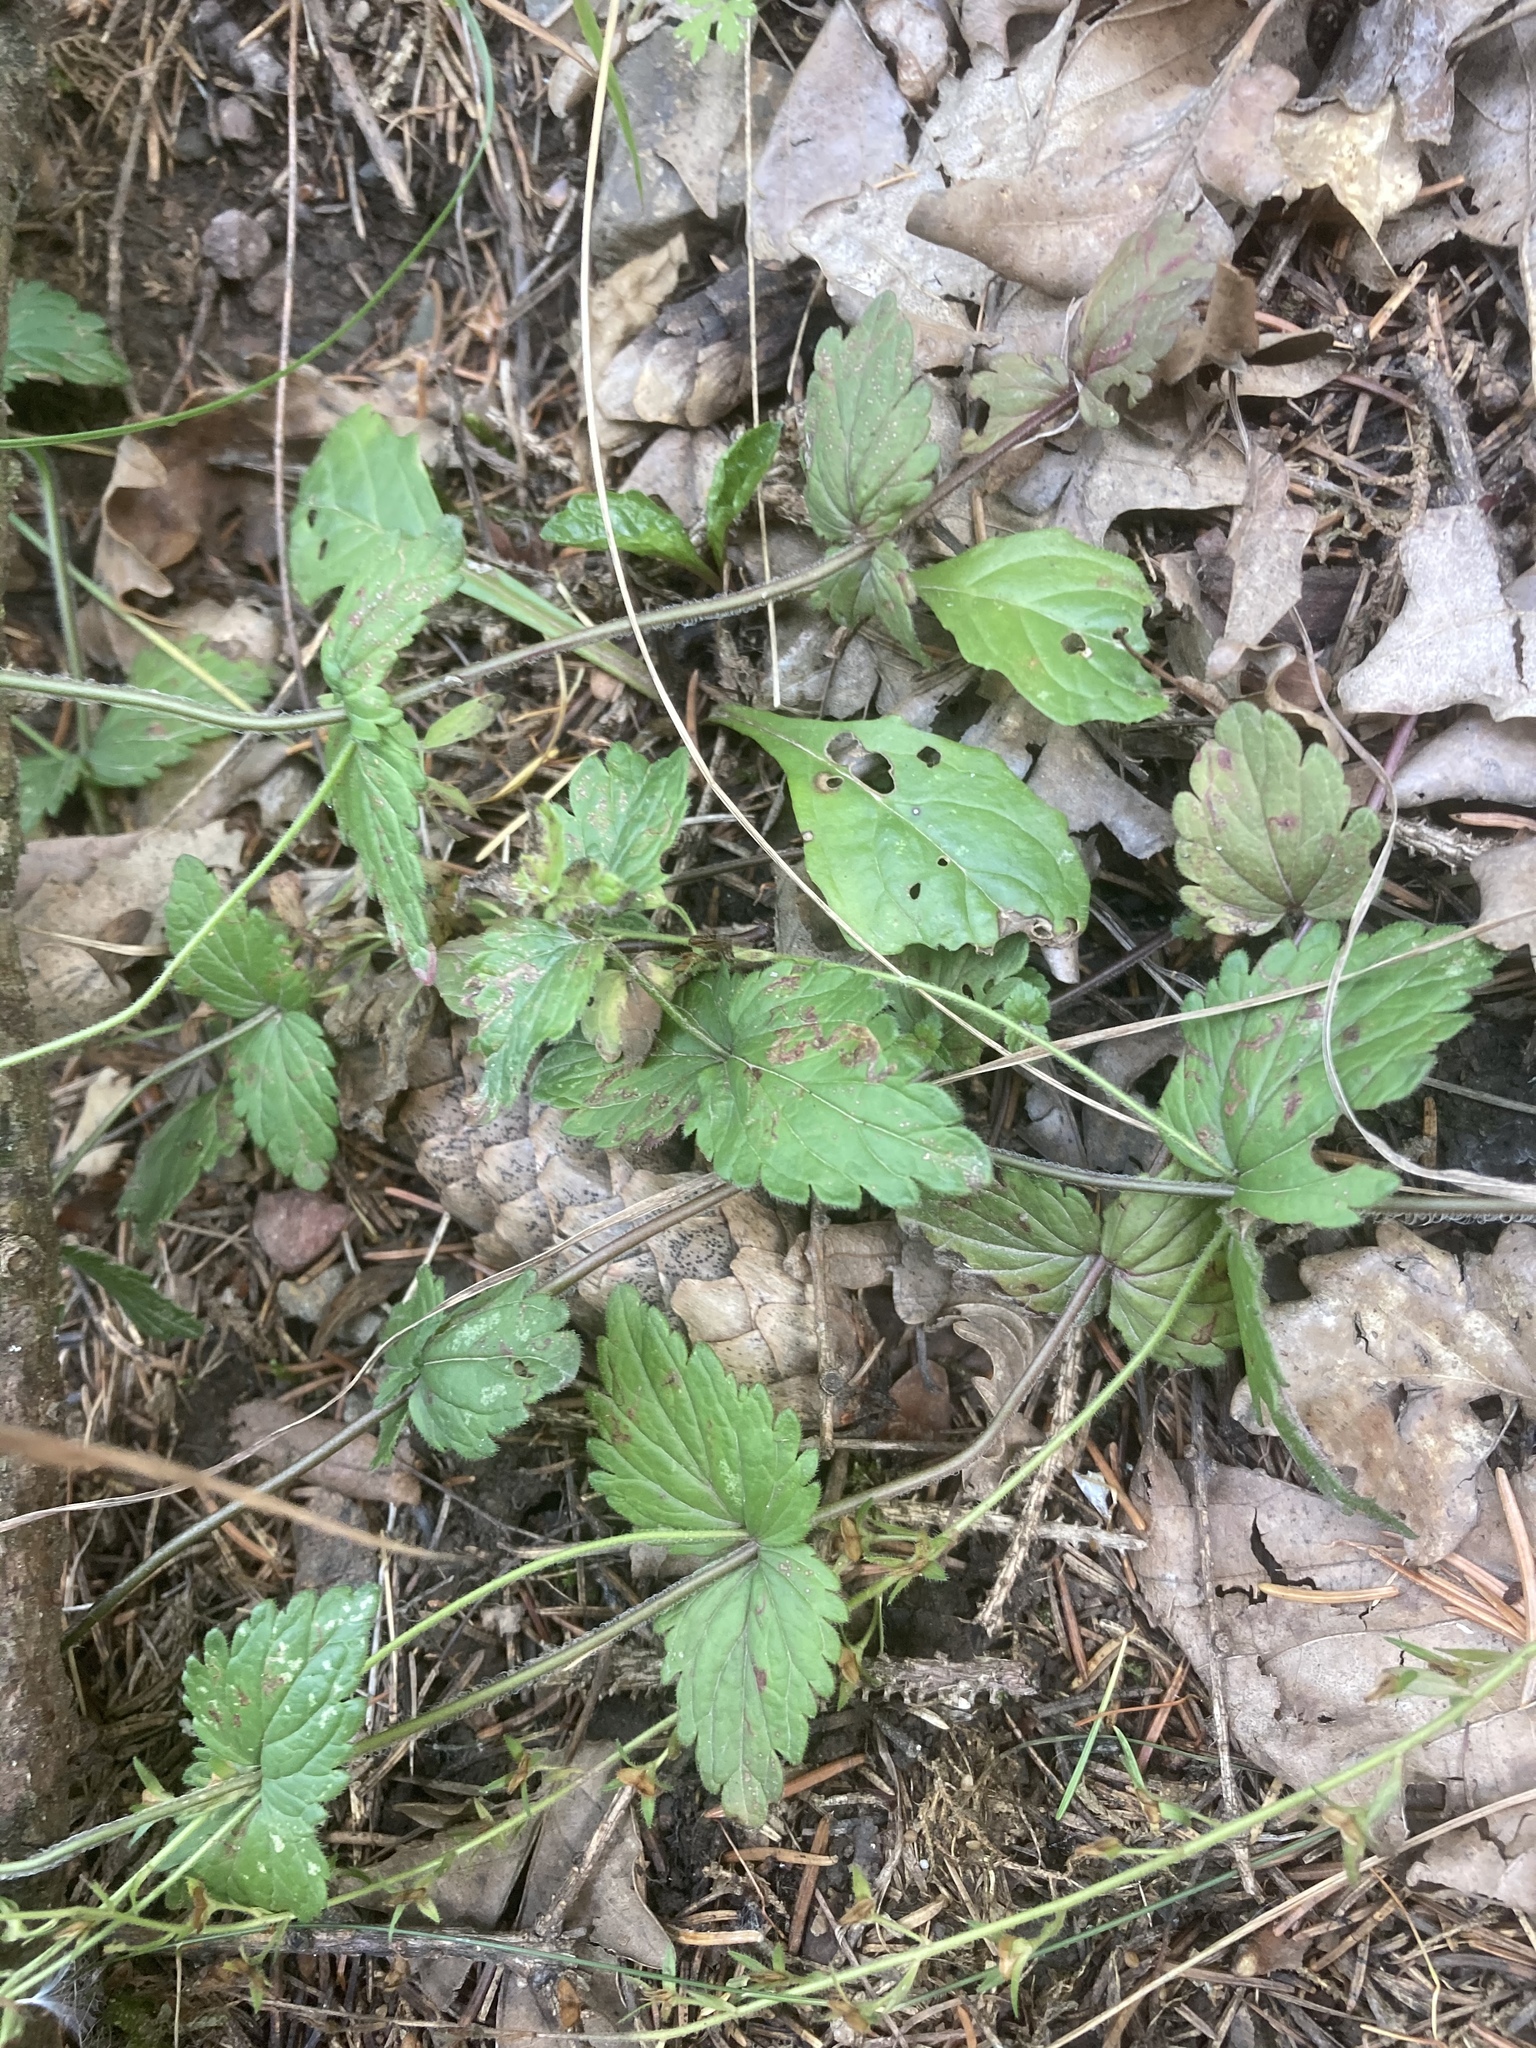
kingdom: Plantae
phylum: Tracheophyta
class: Magnoliopsida
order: Lamiales
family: Plantaginaceae
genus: Veronica
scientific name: Veronica chamaedrys
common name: Germander speedwell
